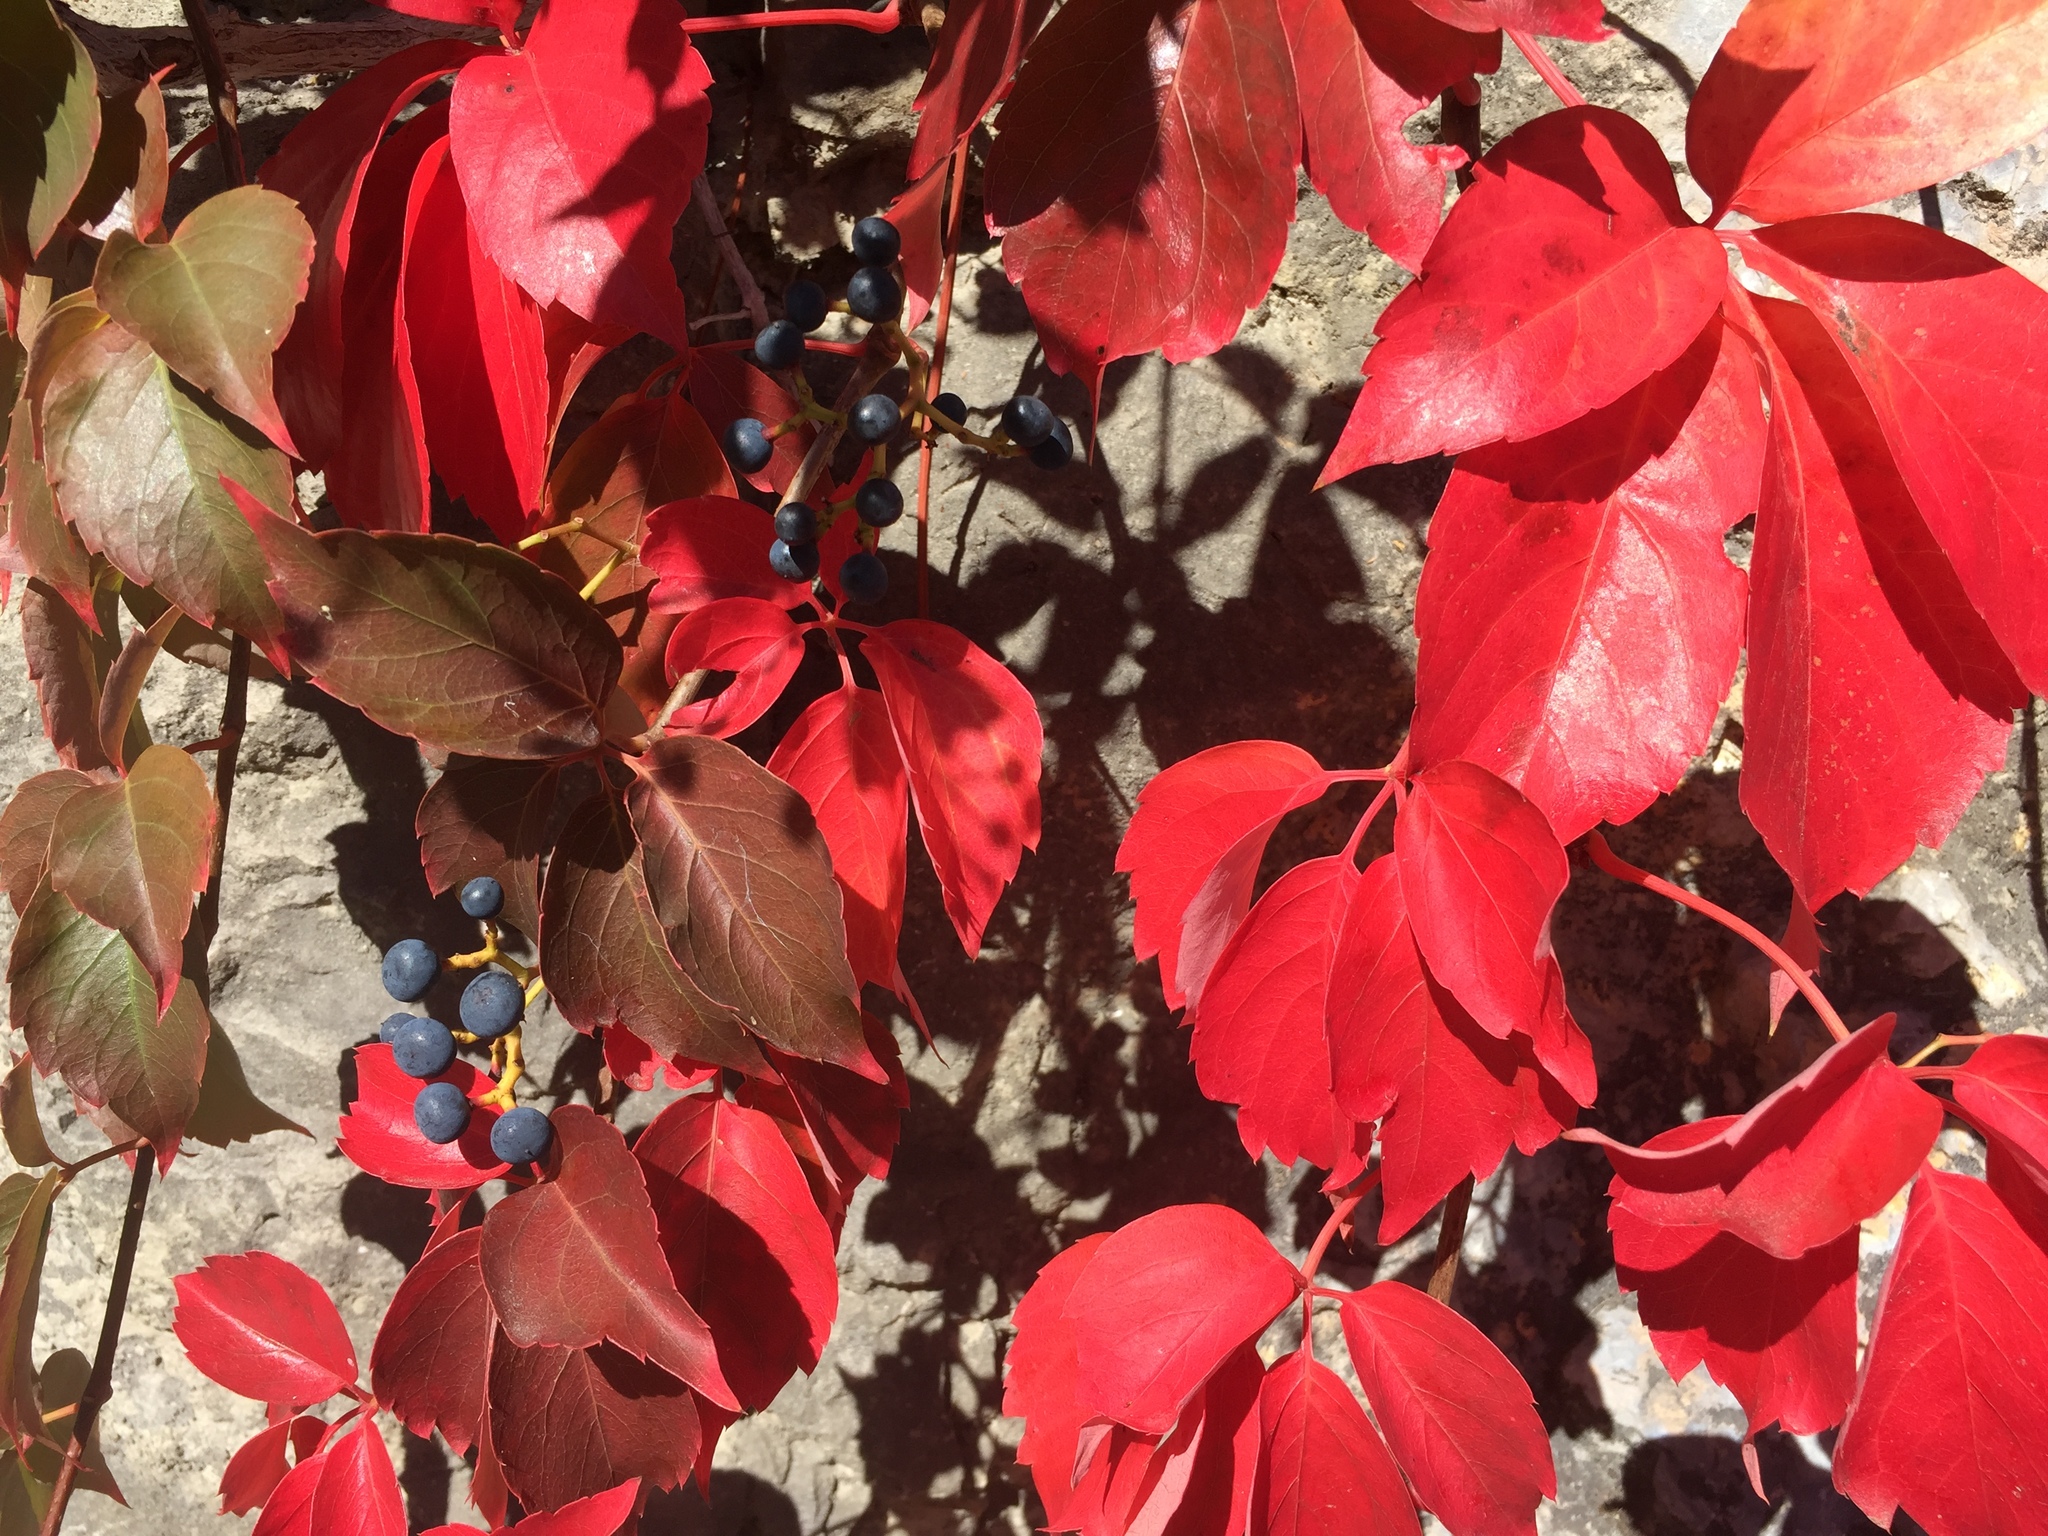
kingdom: Plantae
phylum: Tracheophyta
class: Magnoliopsida
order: Vitales
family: Vitaceae
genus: Parthenocissus
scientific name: Parthenocissus quinquefolia
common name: Virginia-creeper
